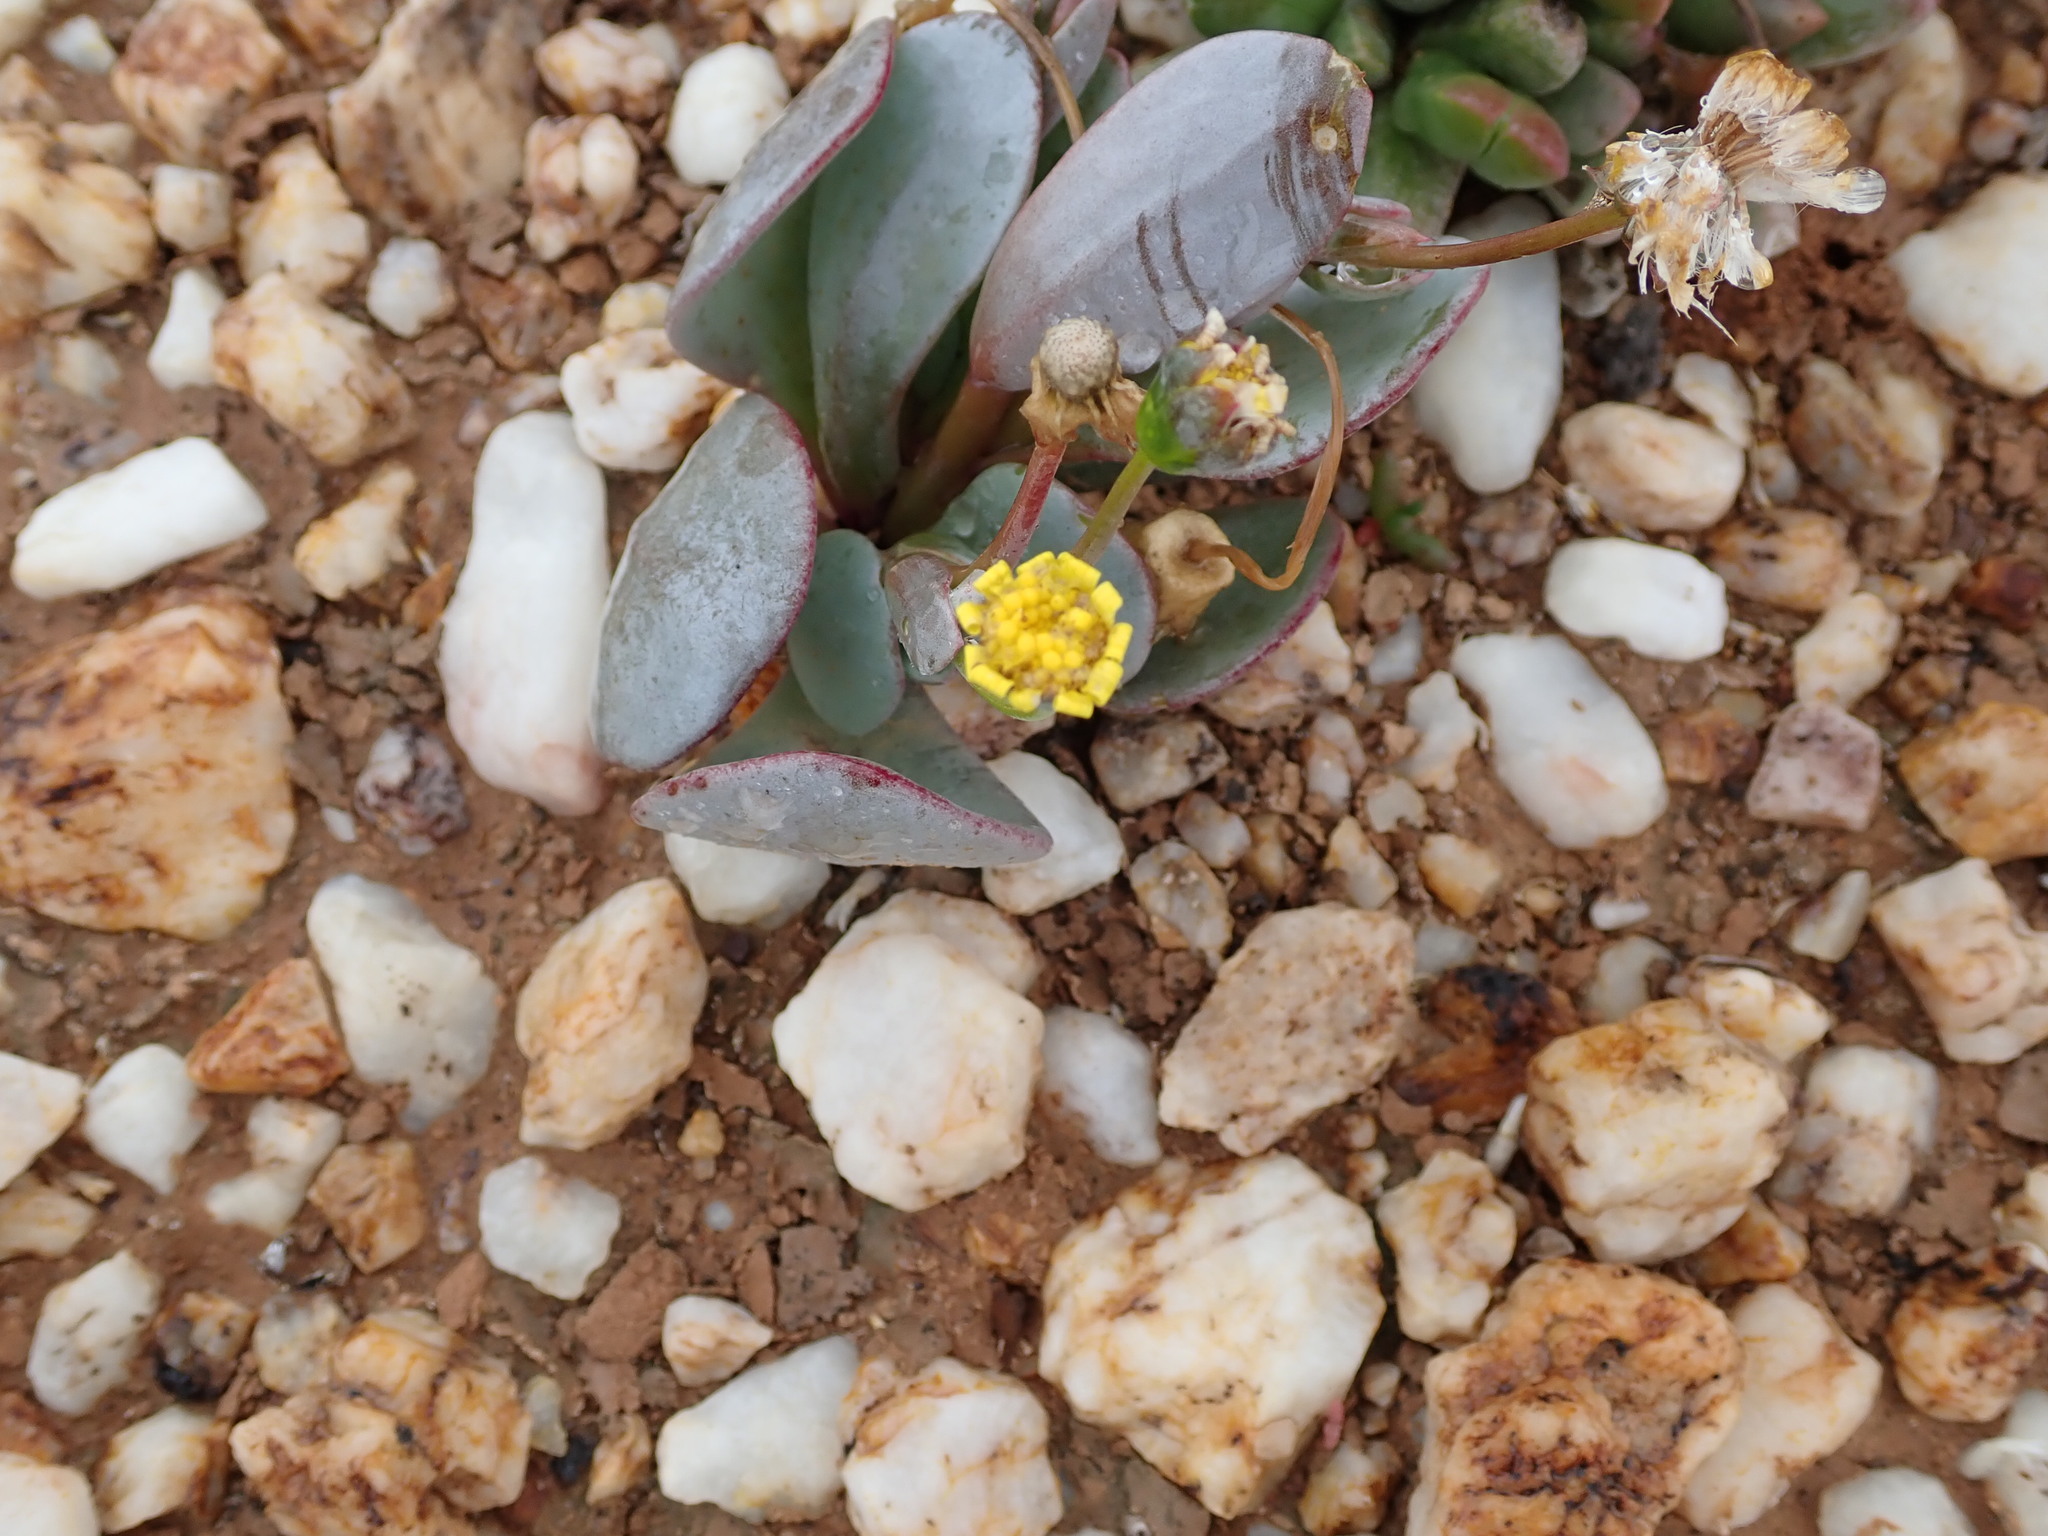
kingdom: Plantae
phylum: Tracheophyta
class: Magnoliopsida
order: Asterales
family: Asteraceae
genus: Othonna
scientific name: Othonna intermedia
